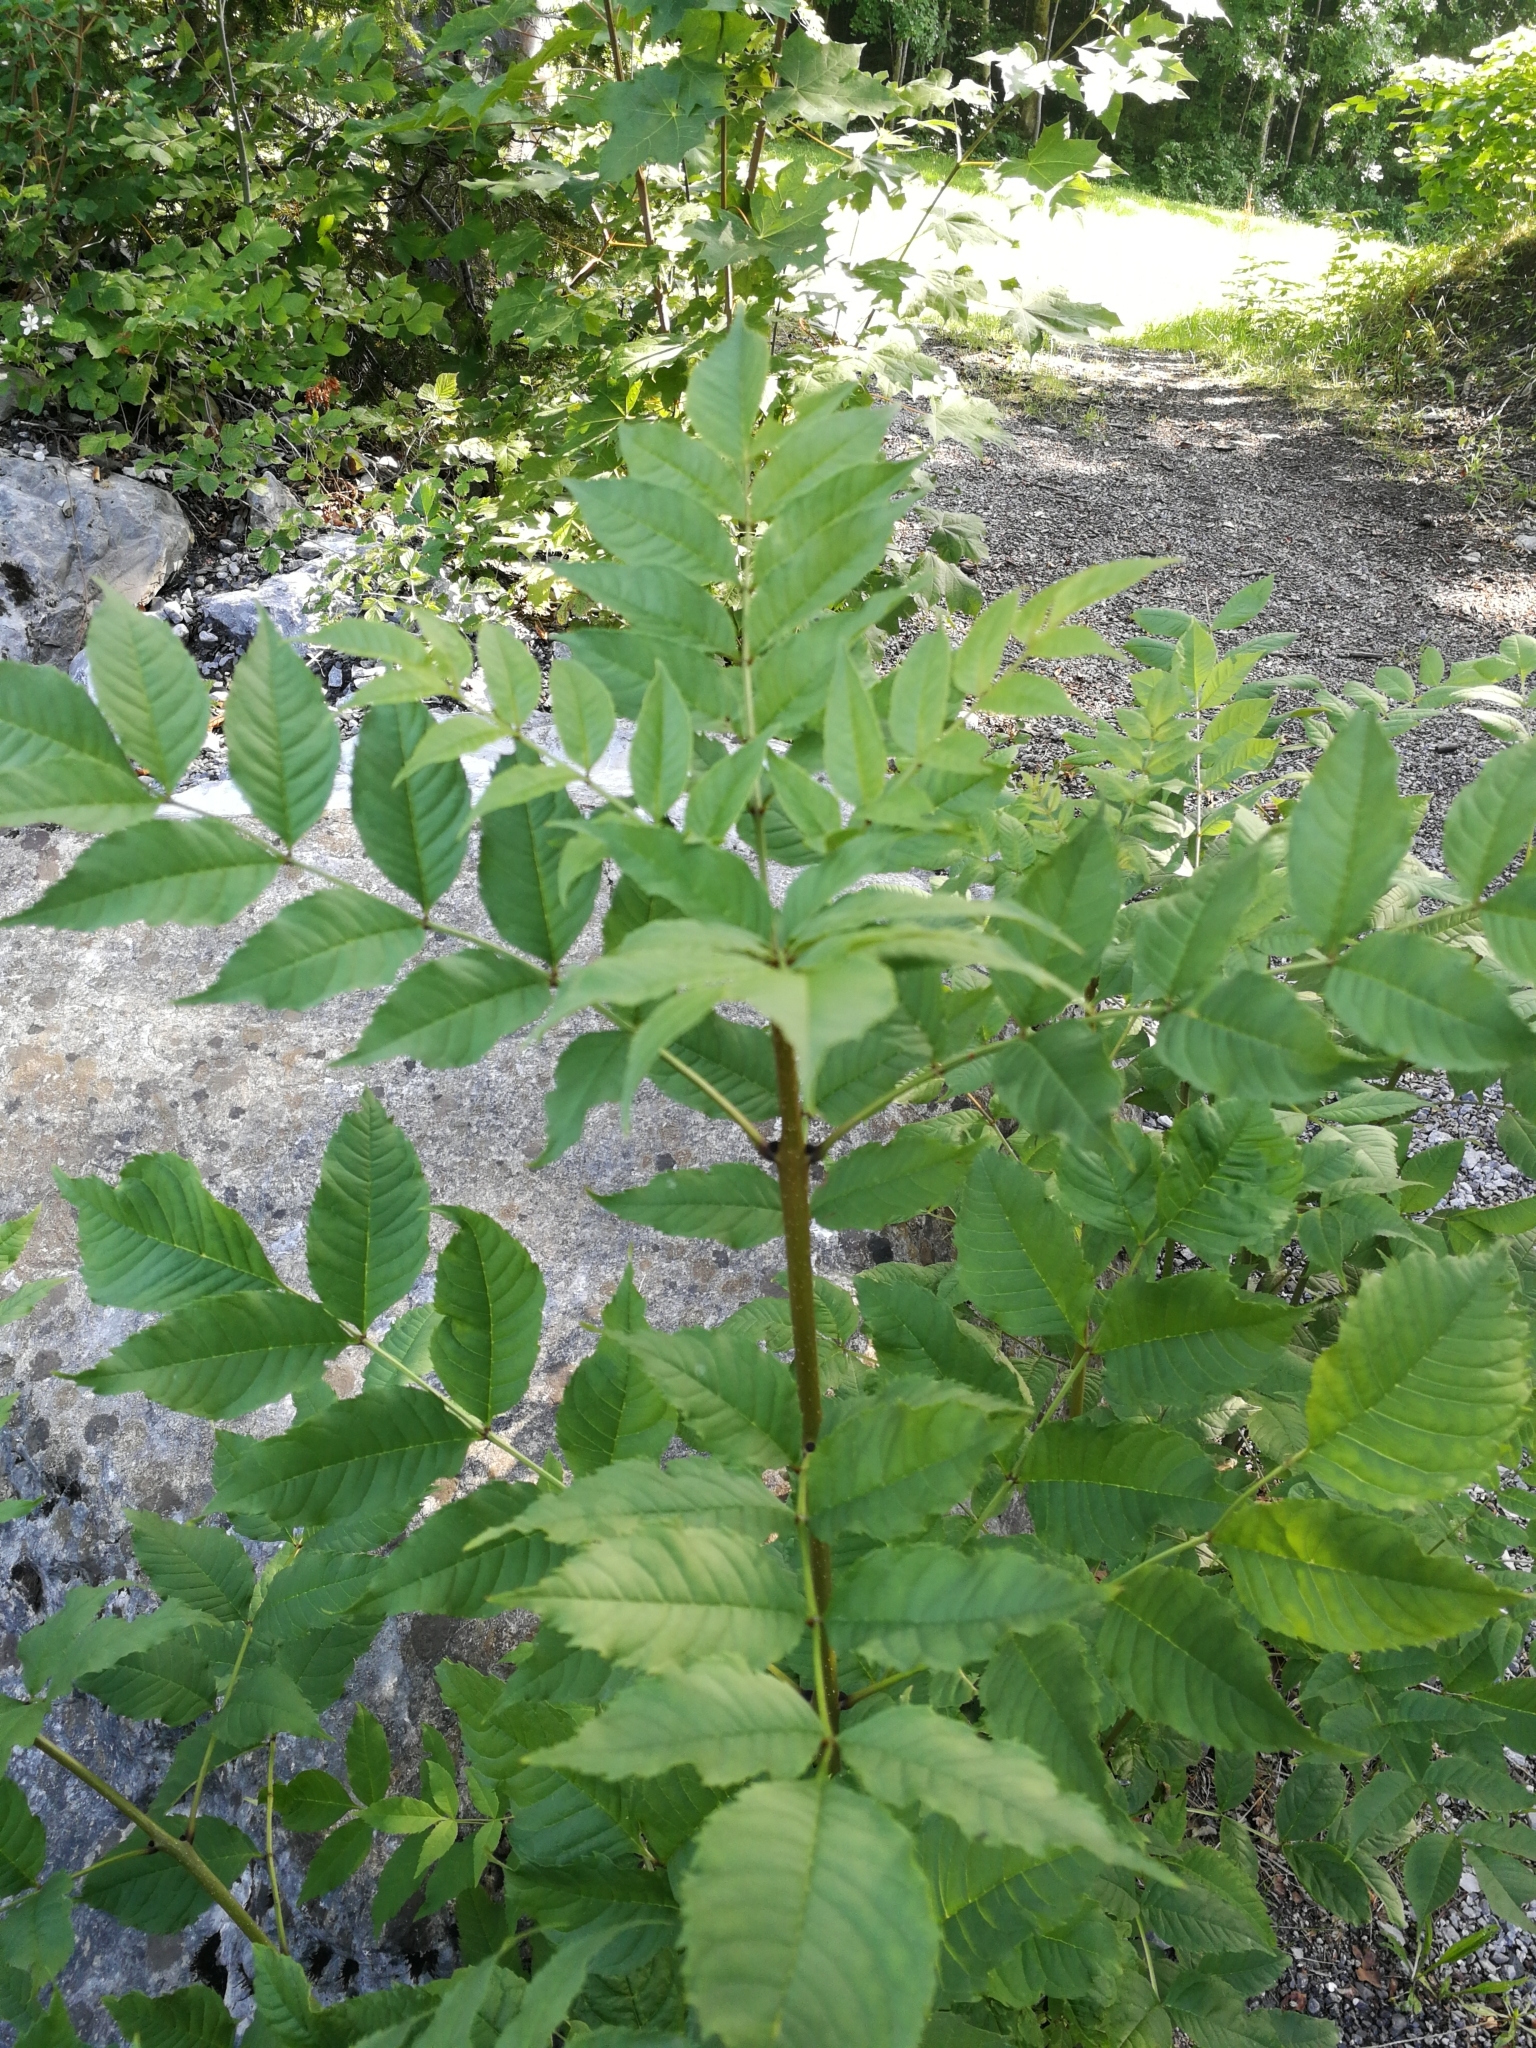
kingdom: Plantae
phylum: Tracheophyta
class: Magnoliopsida
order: Lamiales
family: Oleaceae
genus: Fraxinus
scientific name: Fraxinus excelsior
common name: European ash
